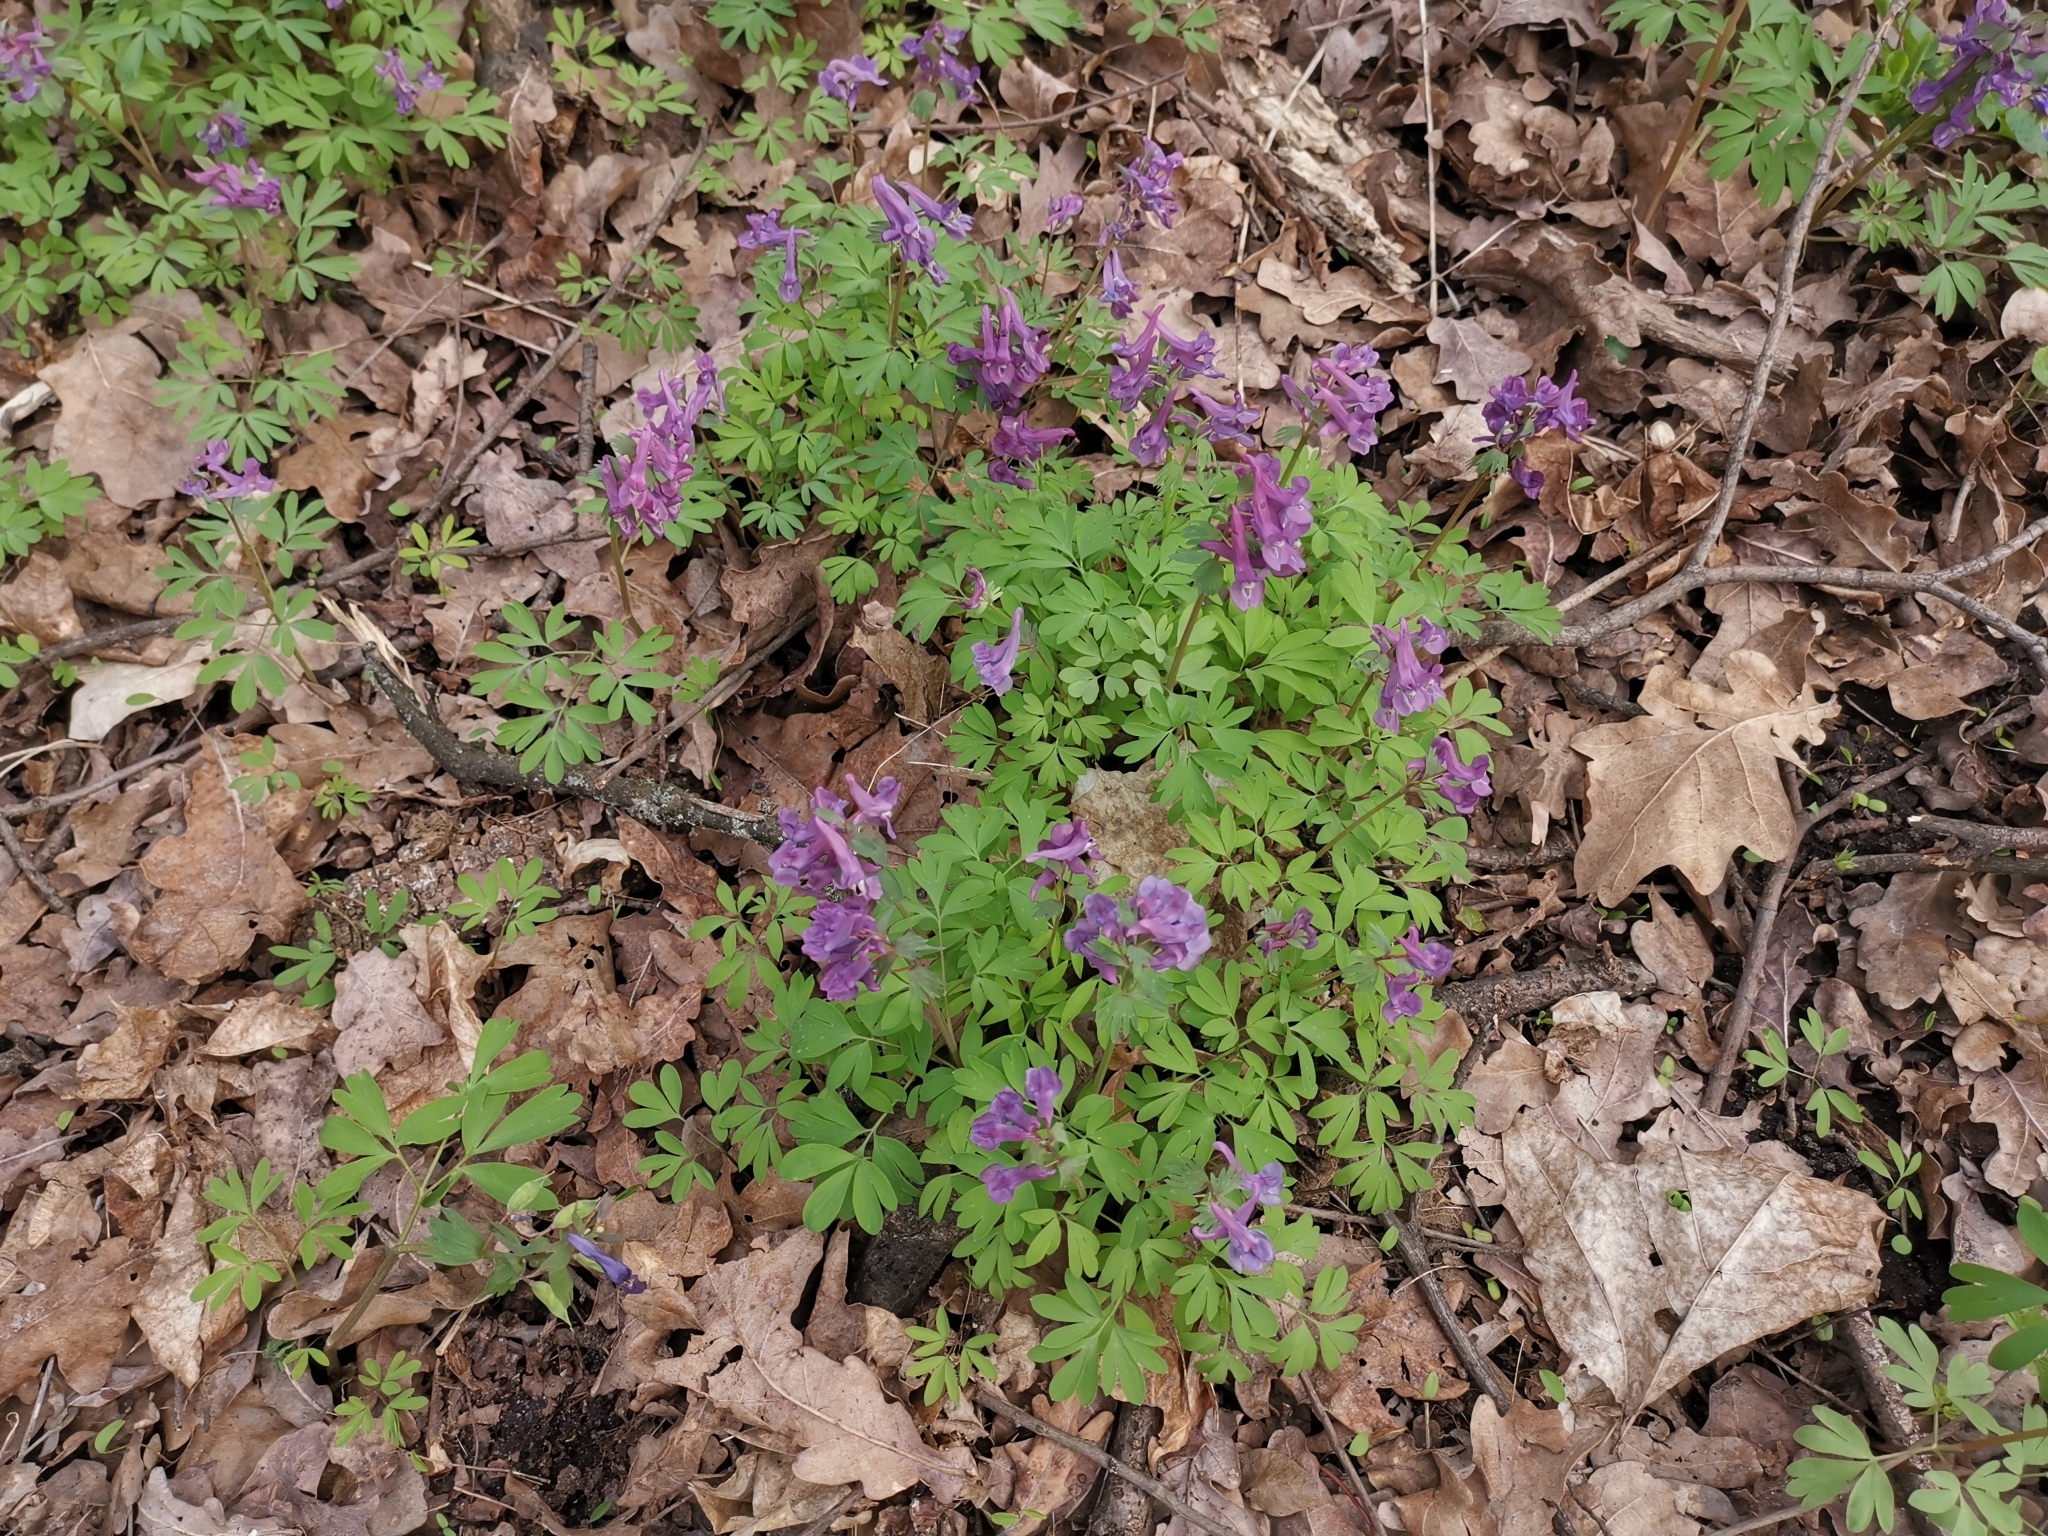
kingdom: Plantae
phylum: Tracheophyta
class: Magnoliopsida
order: Ranunculales
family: Papaveraceae
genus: Corydalis
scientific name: Corydalis solida
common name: Bird-in-a-bush
